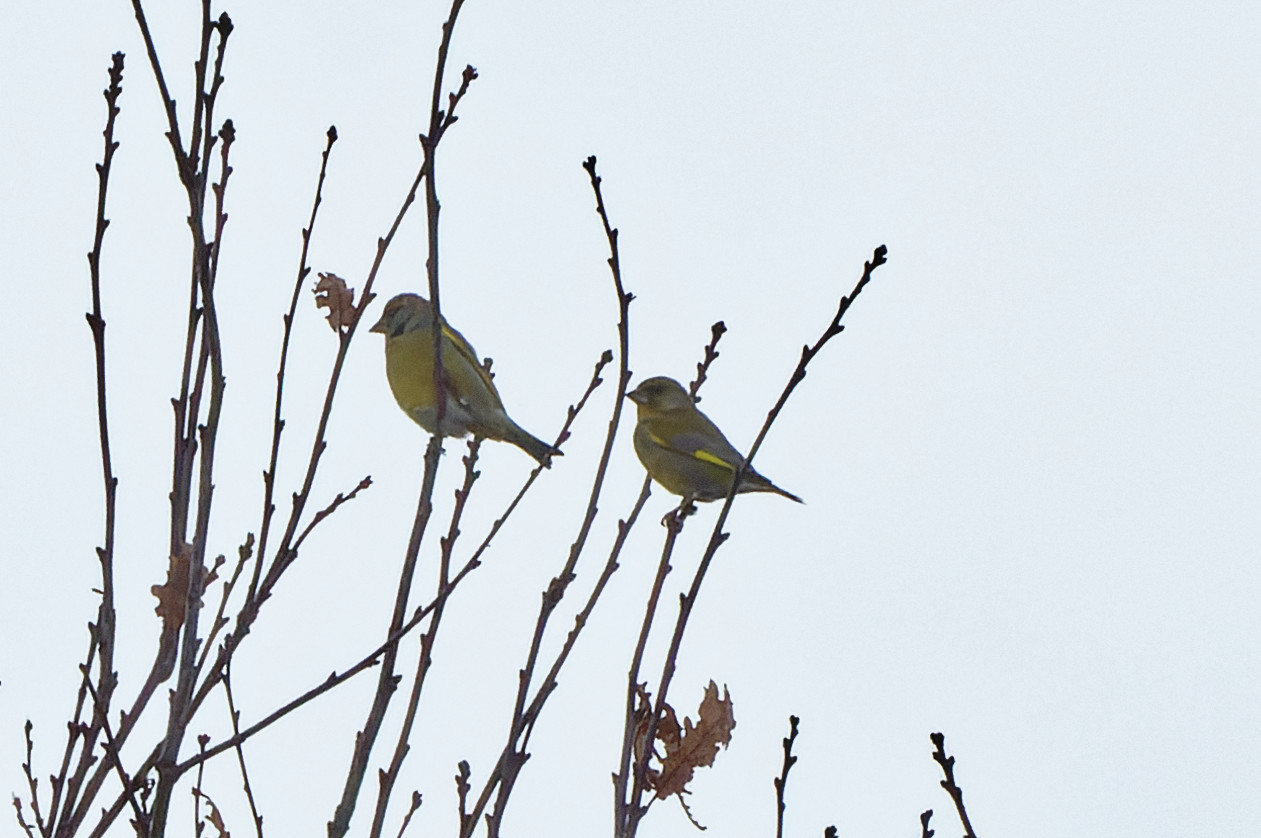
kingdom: Plantae
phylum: Tracheophyta
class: Liliopsida
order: Poales
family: Poaceae
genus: Chloris
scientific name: Chloris chloris
